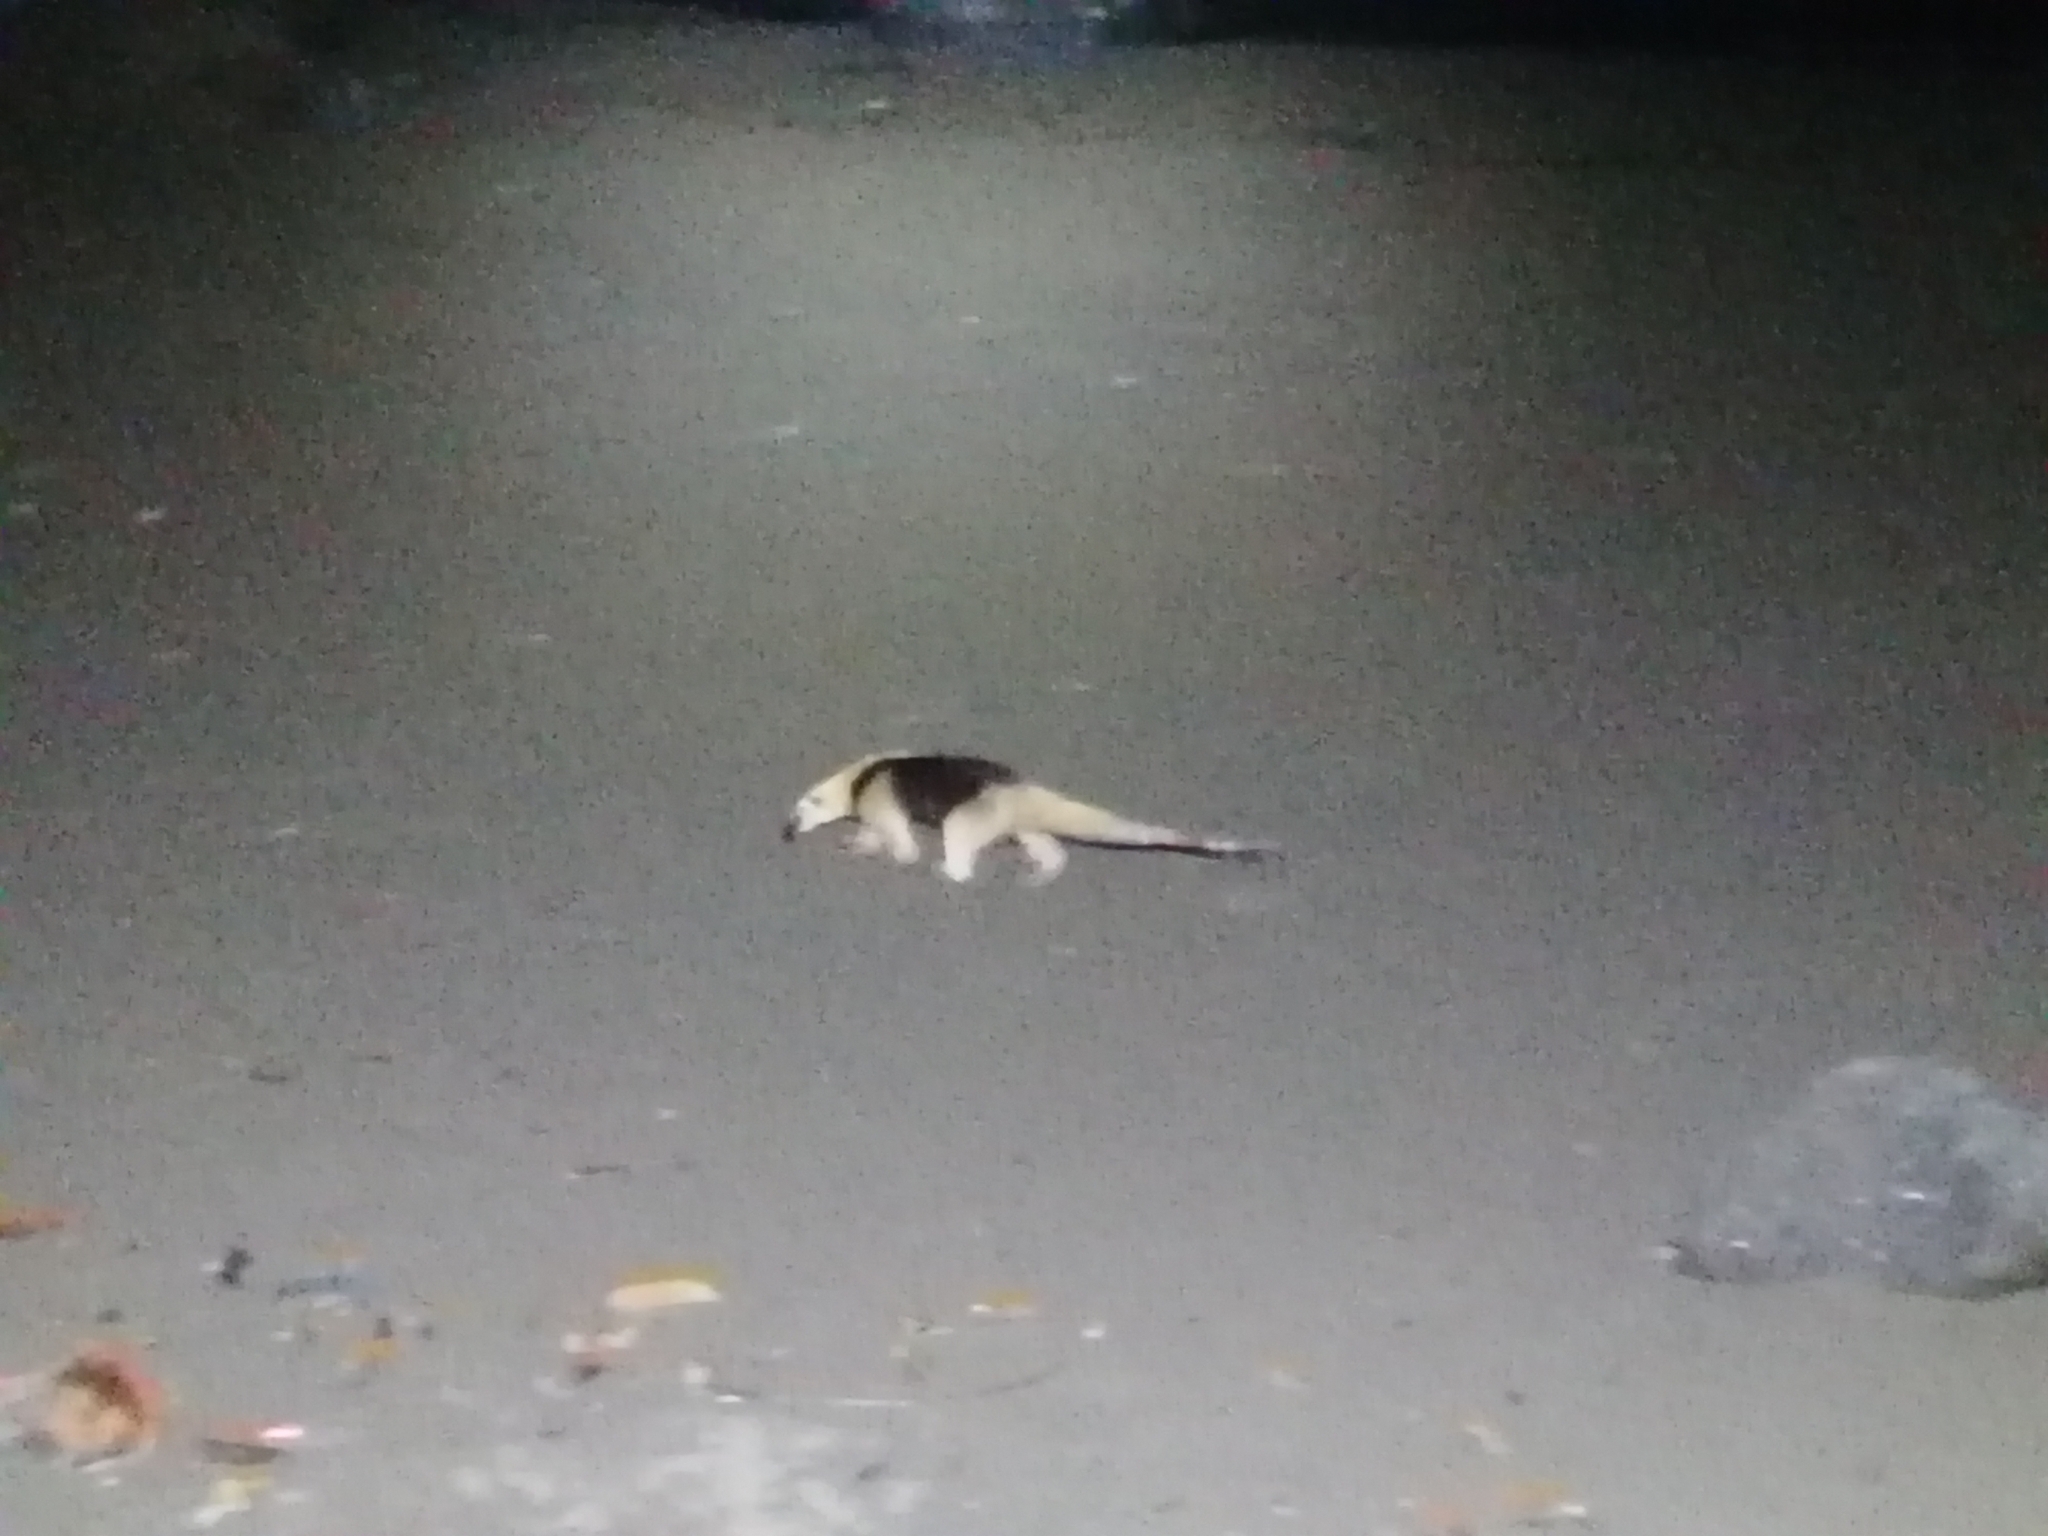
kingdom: Animalia
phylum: Chordata
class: Mammalia
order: Pilosa
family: Myrmecophagidae
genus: Tamandua
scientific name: Tamandua mexicana
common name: Northern tamandua
